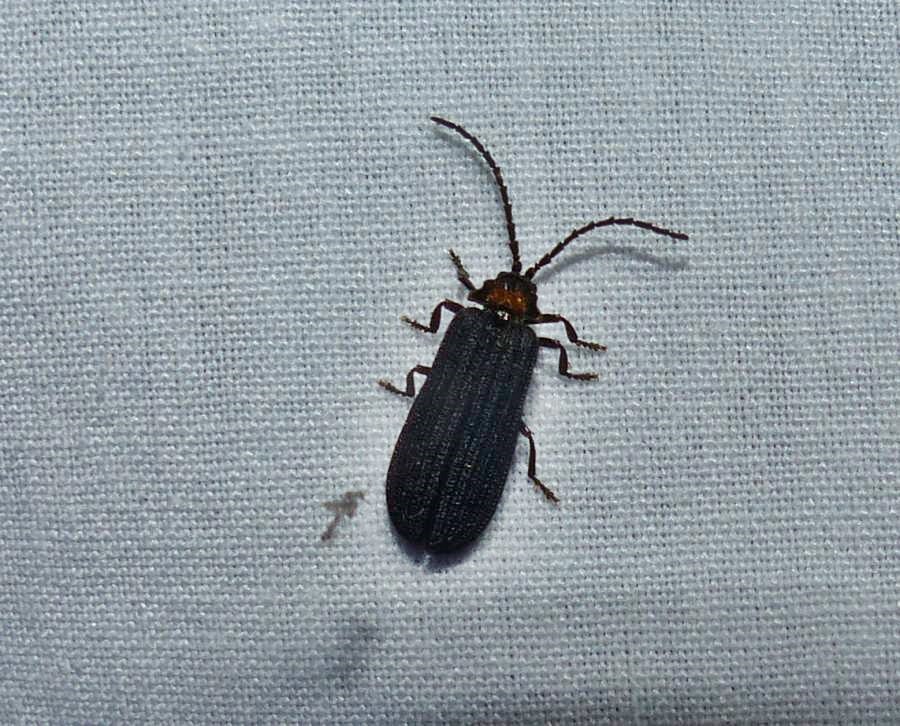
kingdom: Animalia
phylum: Arthropoda
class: Insecta
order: Coleoptera
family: Lycidae
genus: Lopheros
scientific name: Lopheros fraternus
